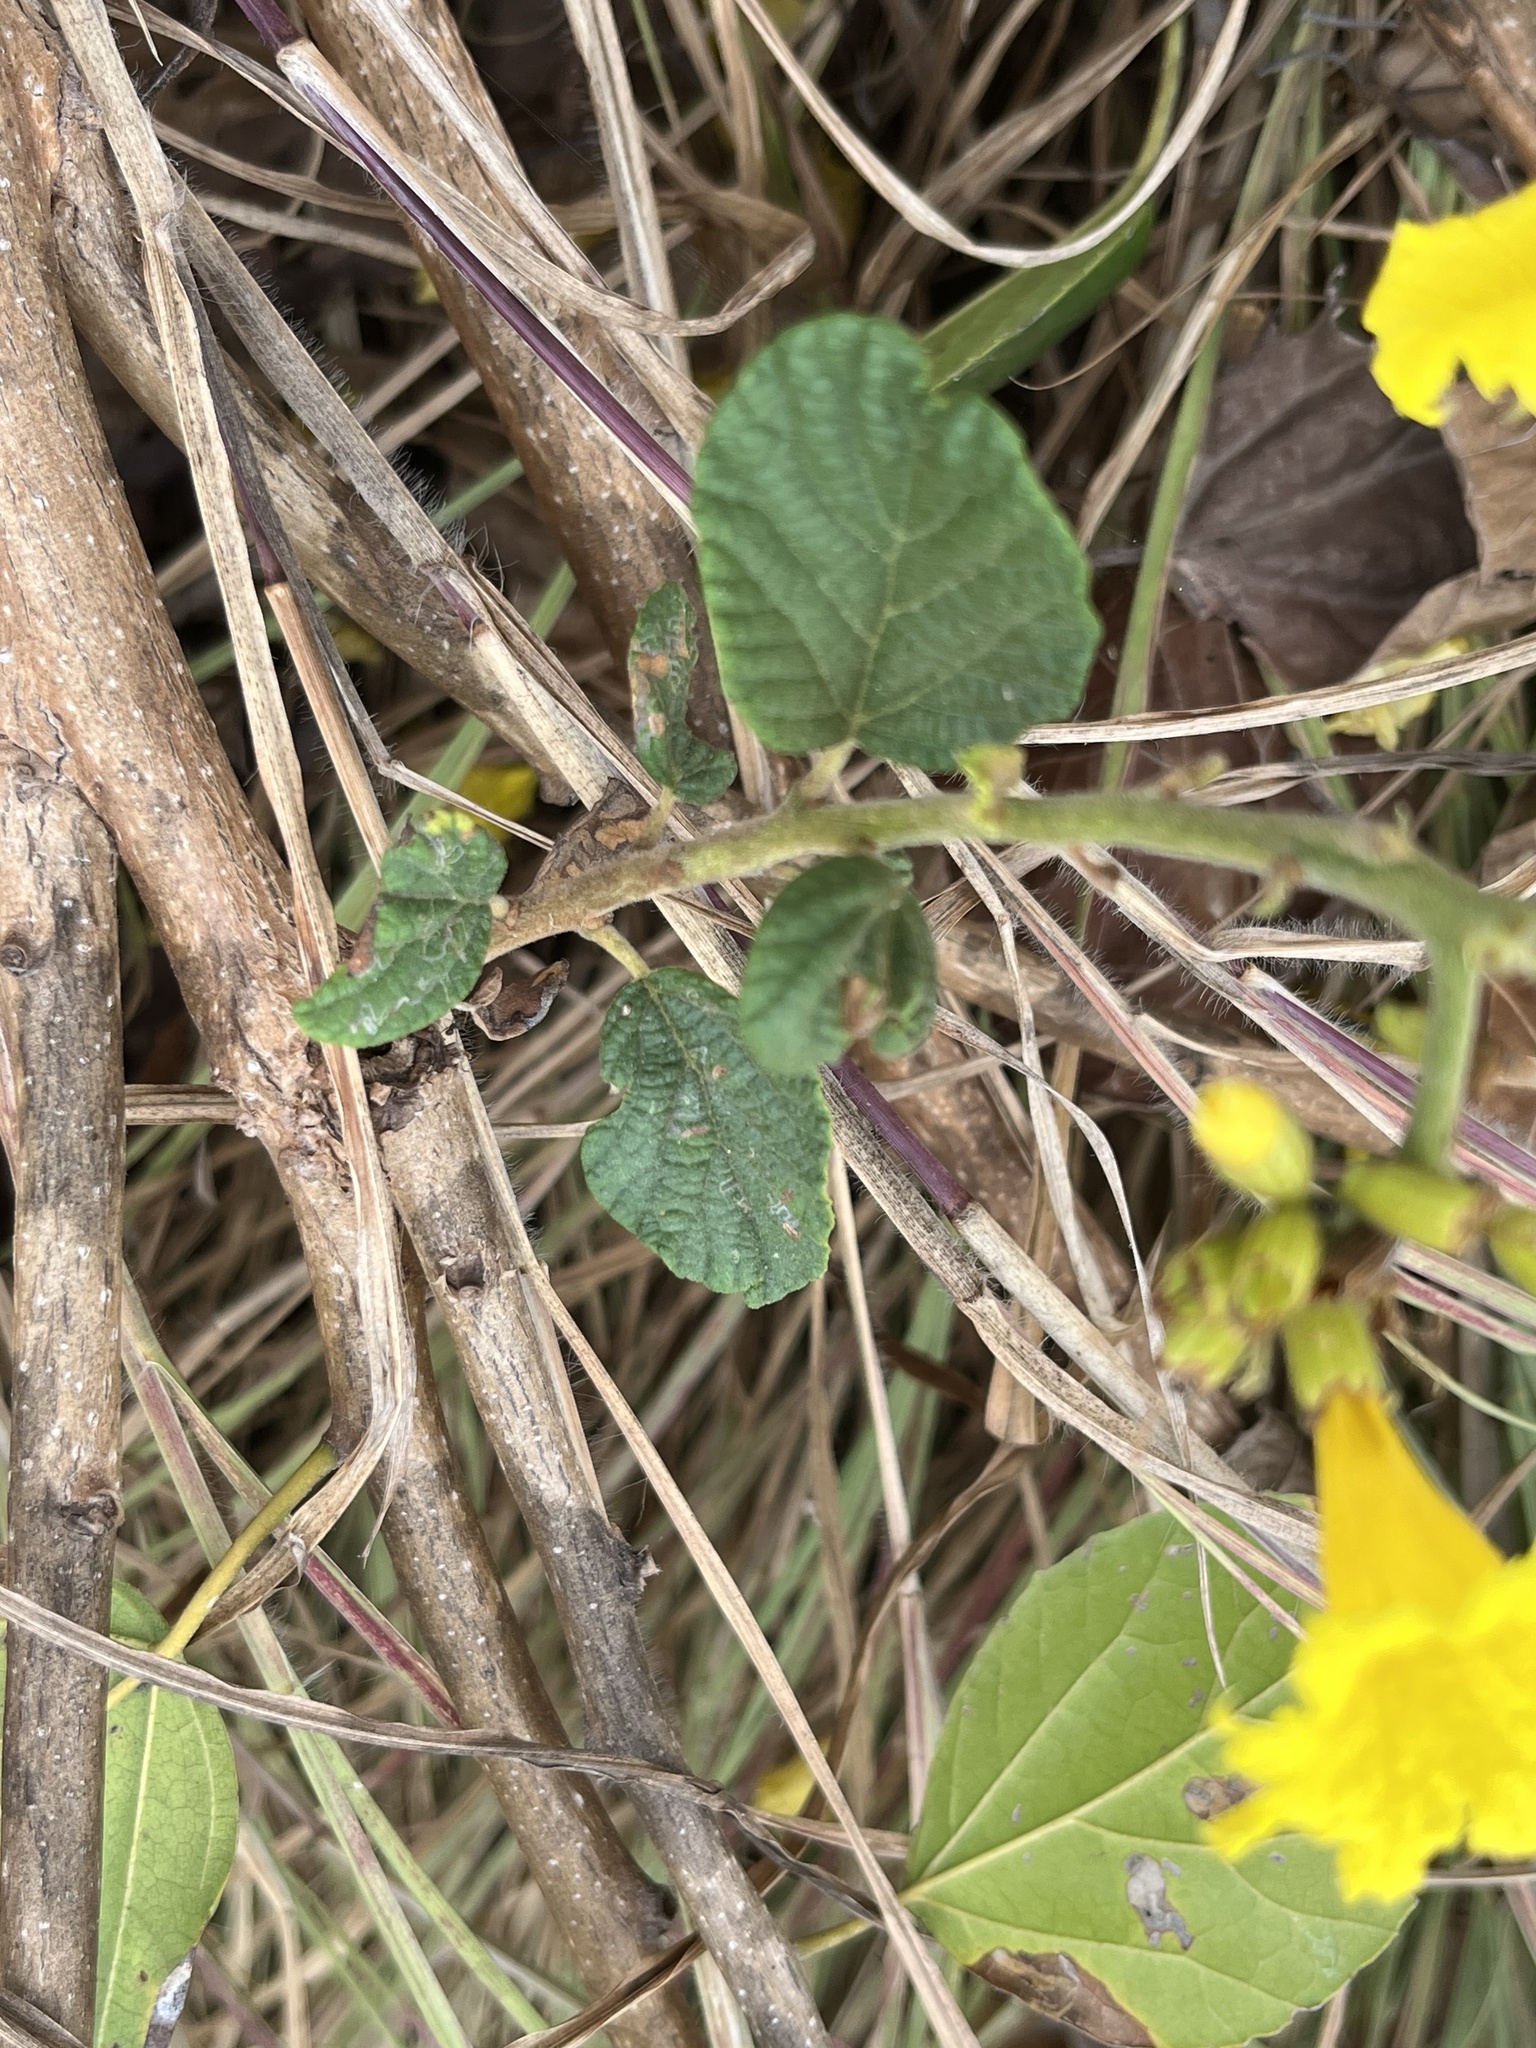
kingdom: Plantae
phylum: Tracheophyta
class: Magnoliopsida
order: Boraginales
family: Cordiaceae
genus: Cordia
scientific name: Cordia lutea
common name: Yellow geiger
